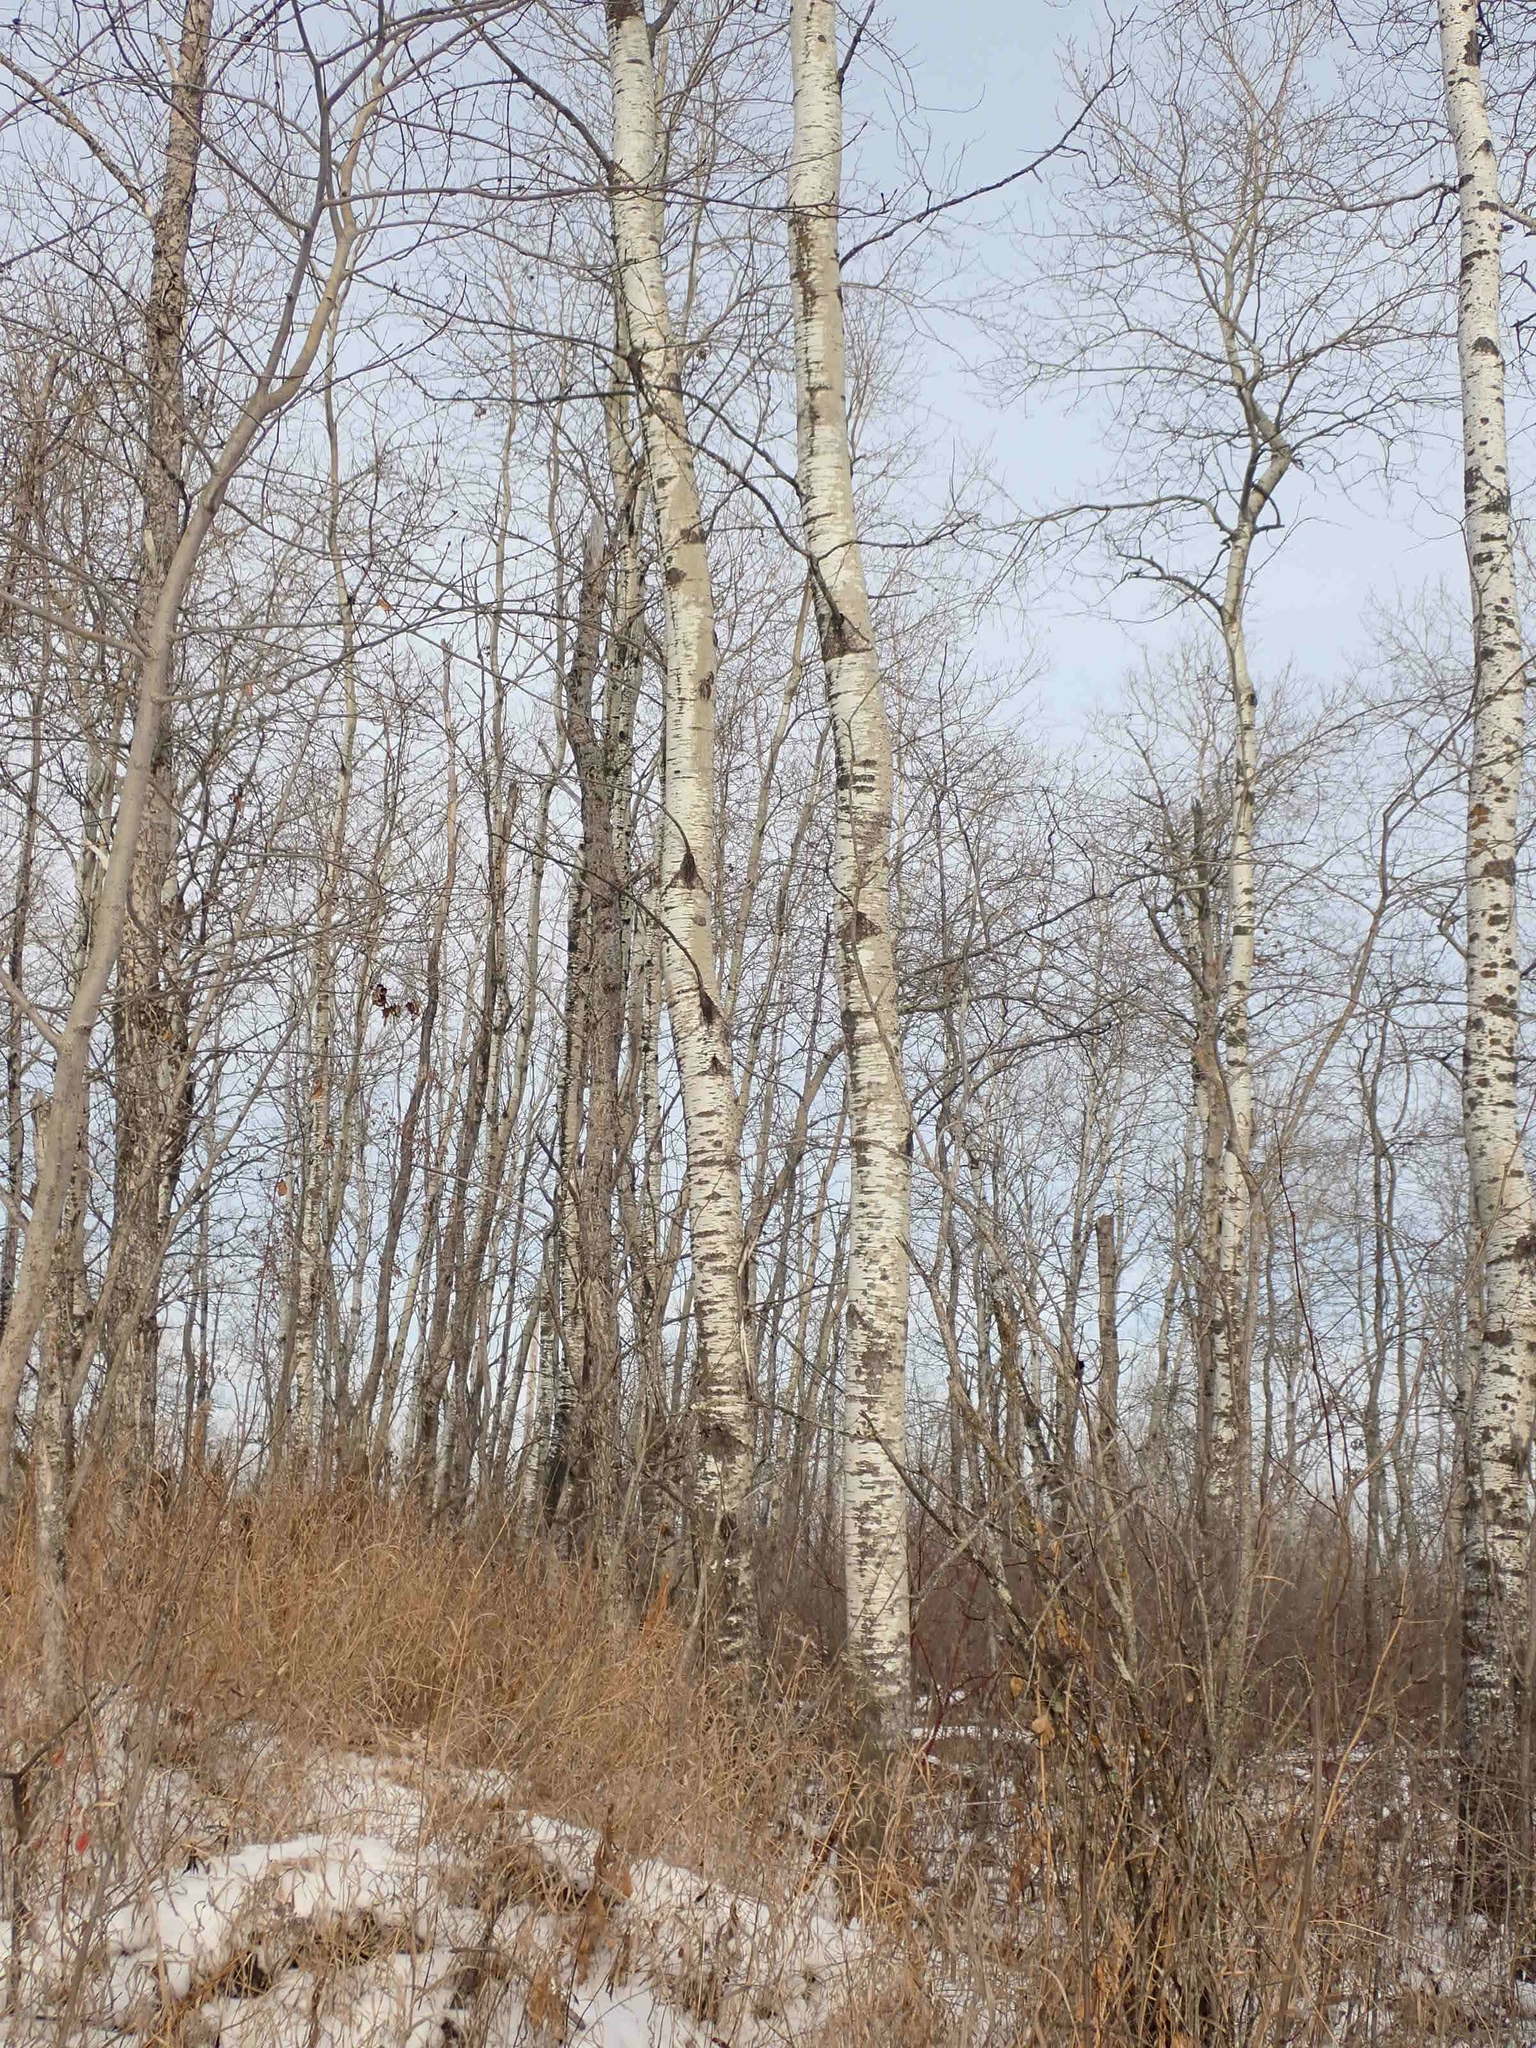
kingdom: Plantae
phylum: Tracheophyta
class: Magnoliopsida
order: Malpighiales
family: Salicaceae
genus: Populus
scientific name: Populus tremuloides
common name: Quaking aspen
